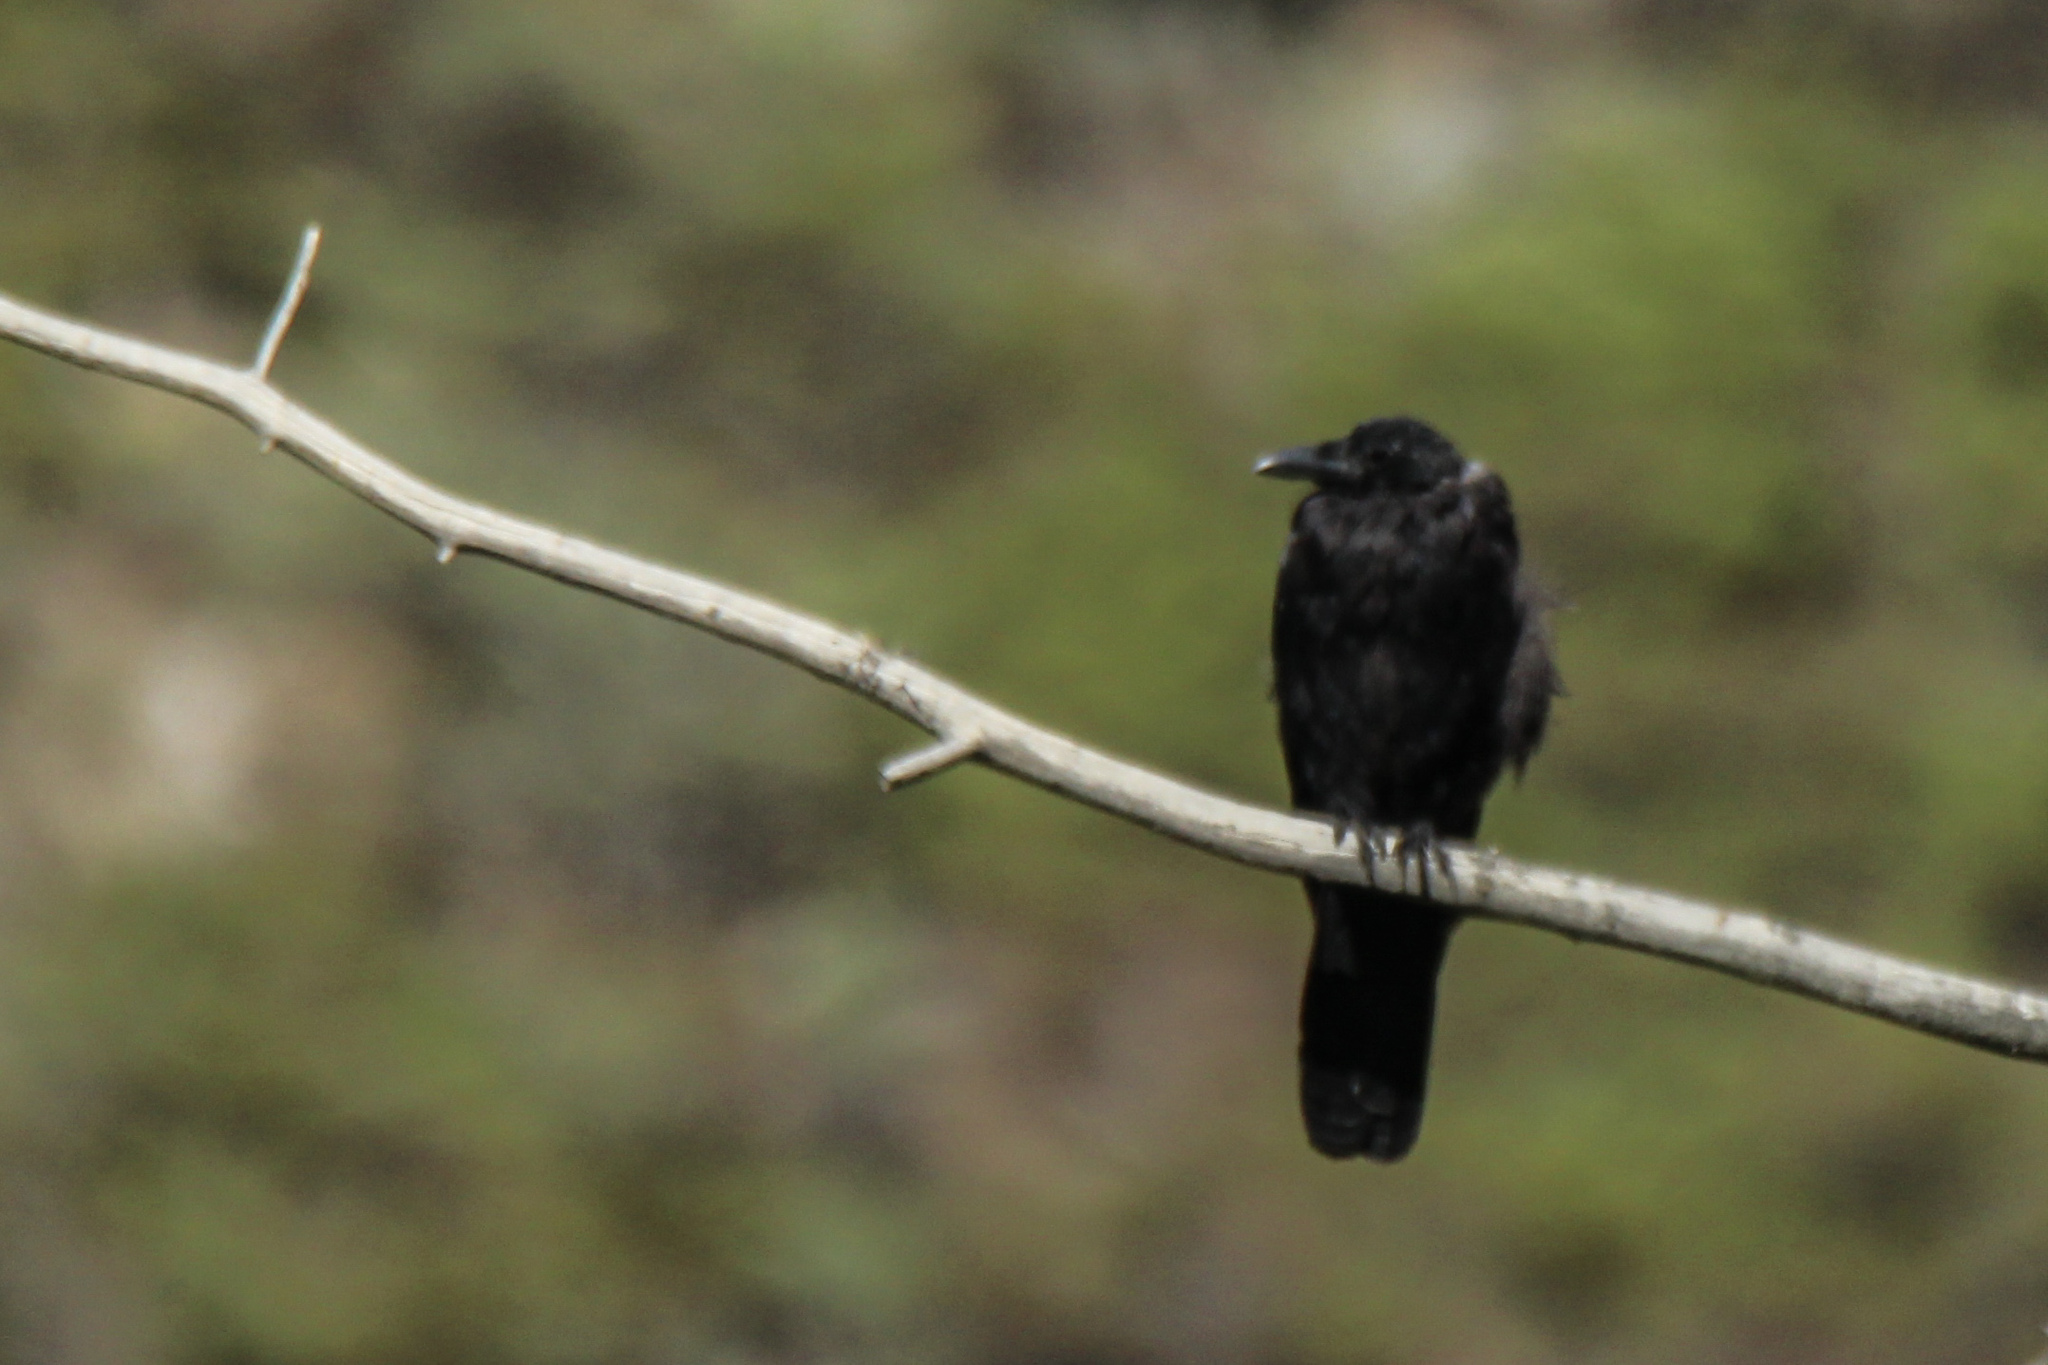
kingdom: Animalia
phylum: Chordata
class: Aves
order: Passeriformes
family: Corvidae
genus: Corvus
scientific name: Corvus corone
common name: Carrion crow
